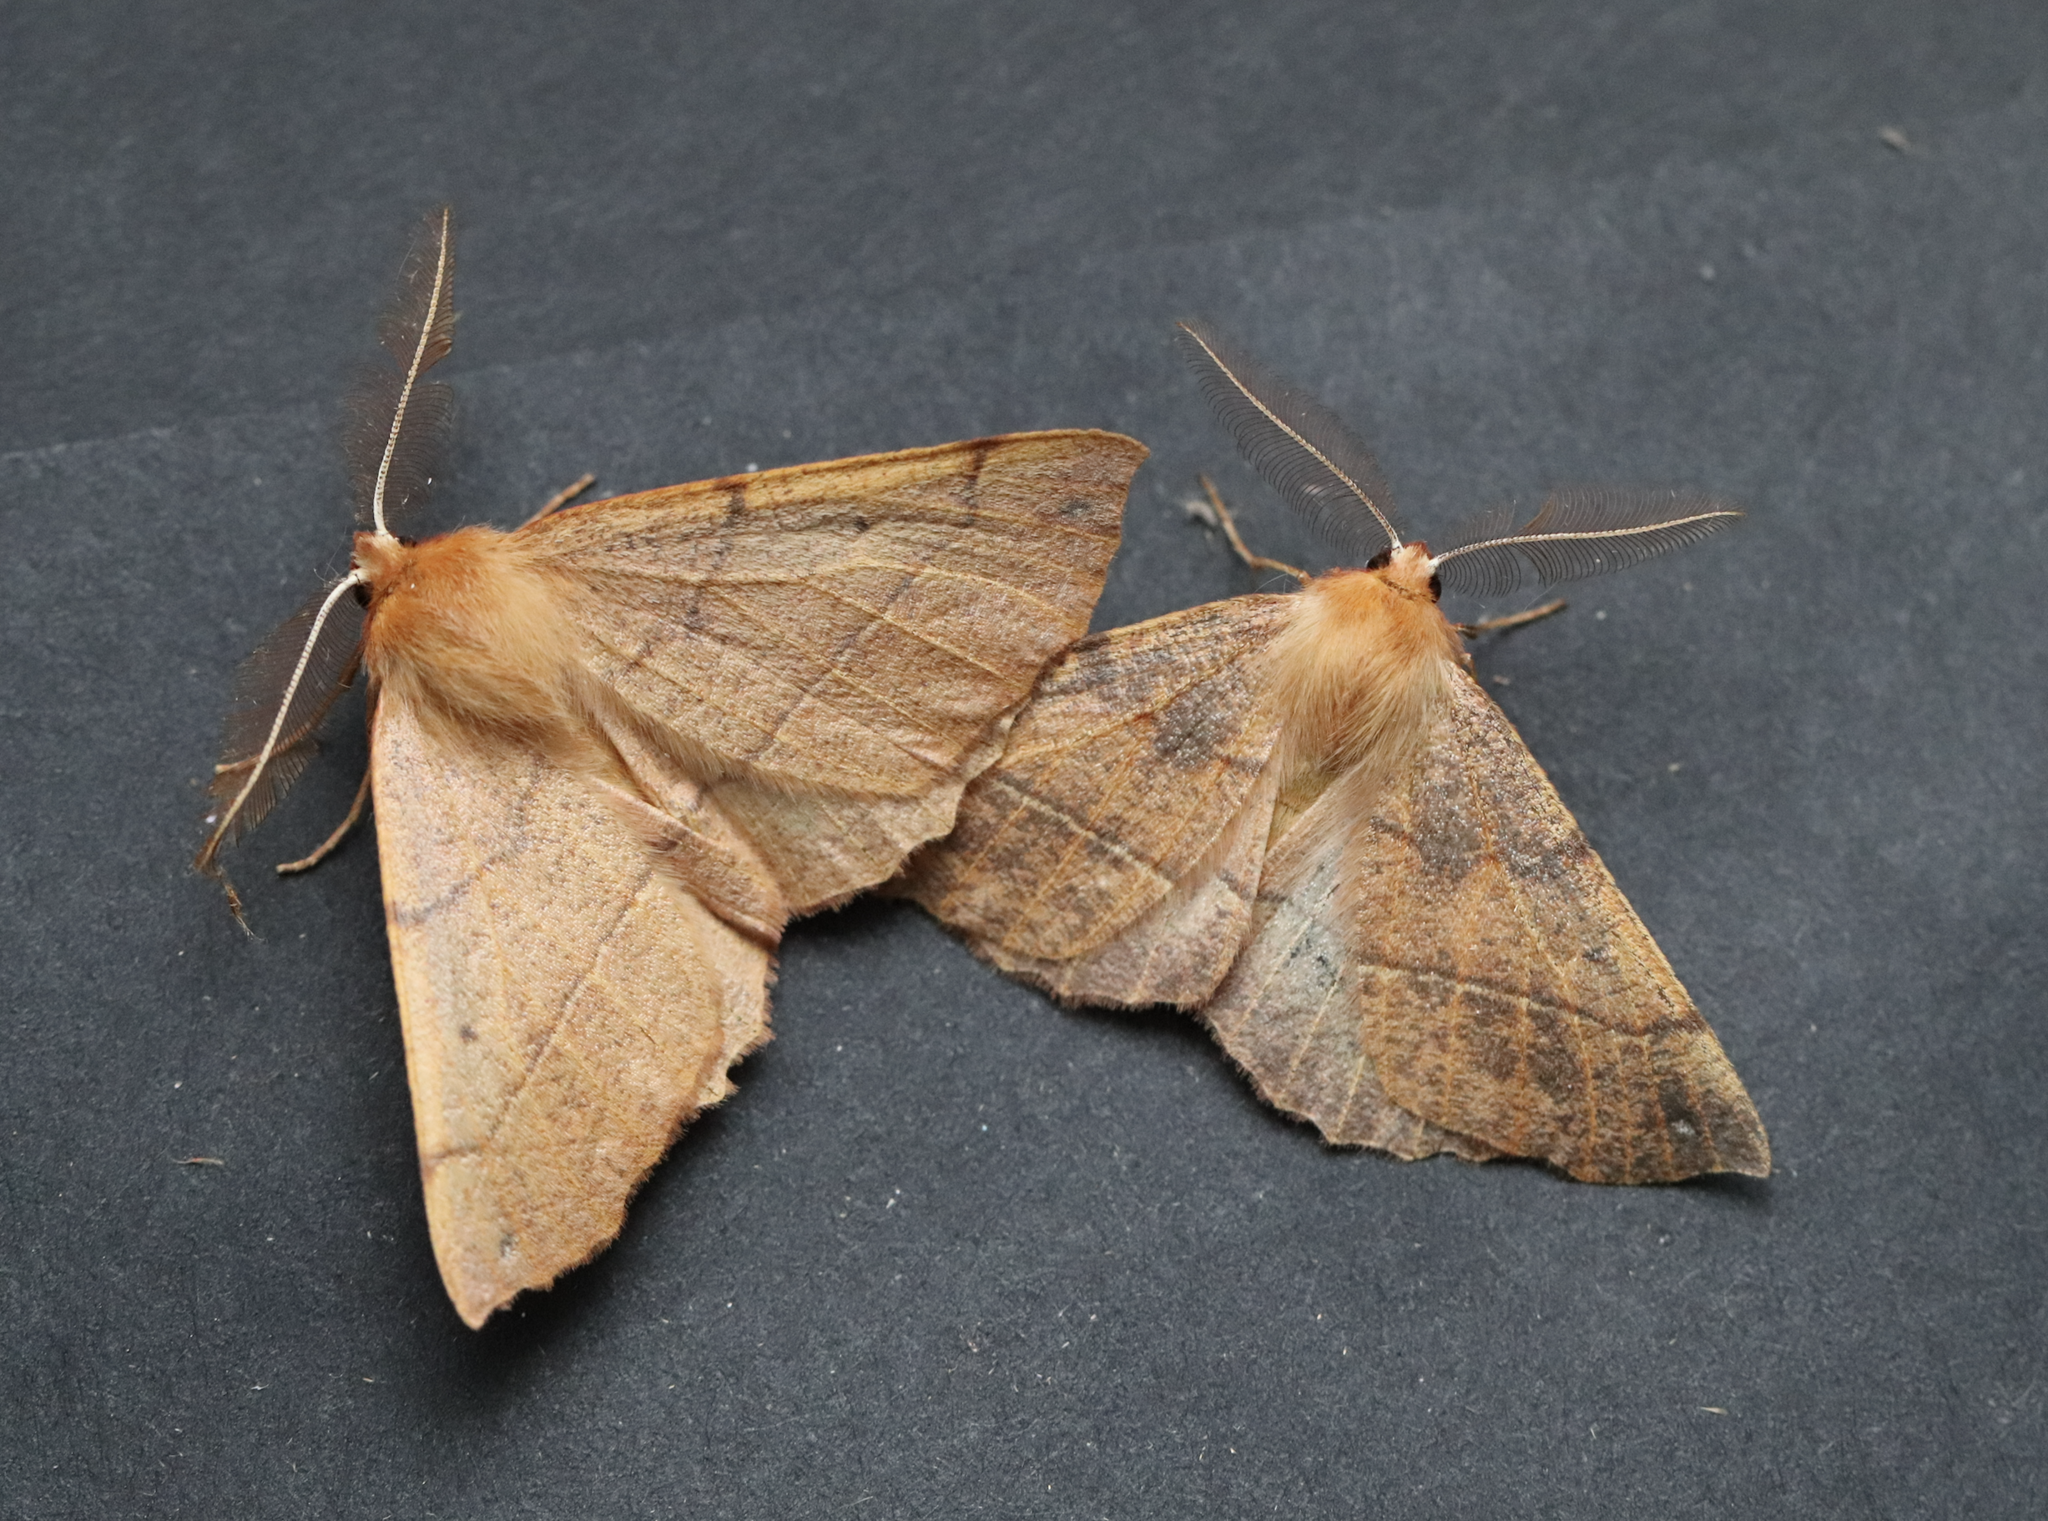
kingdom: Animalia
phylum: Arthropoda
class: Insecta
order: Lepidoptera
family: Geometridae
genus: Colotois
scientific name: Colotois pennaria
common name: Feathered thorn
